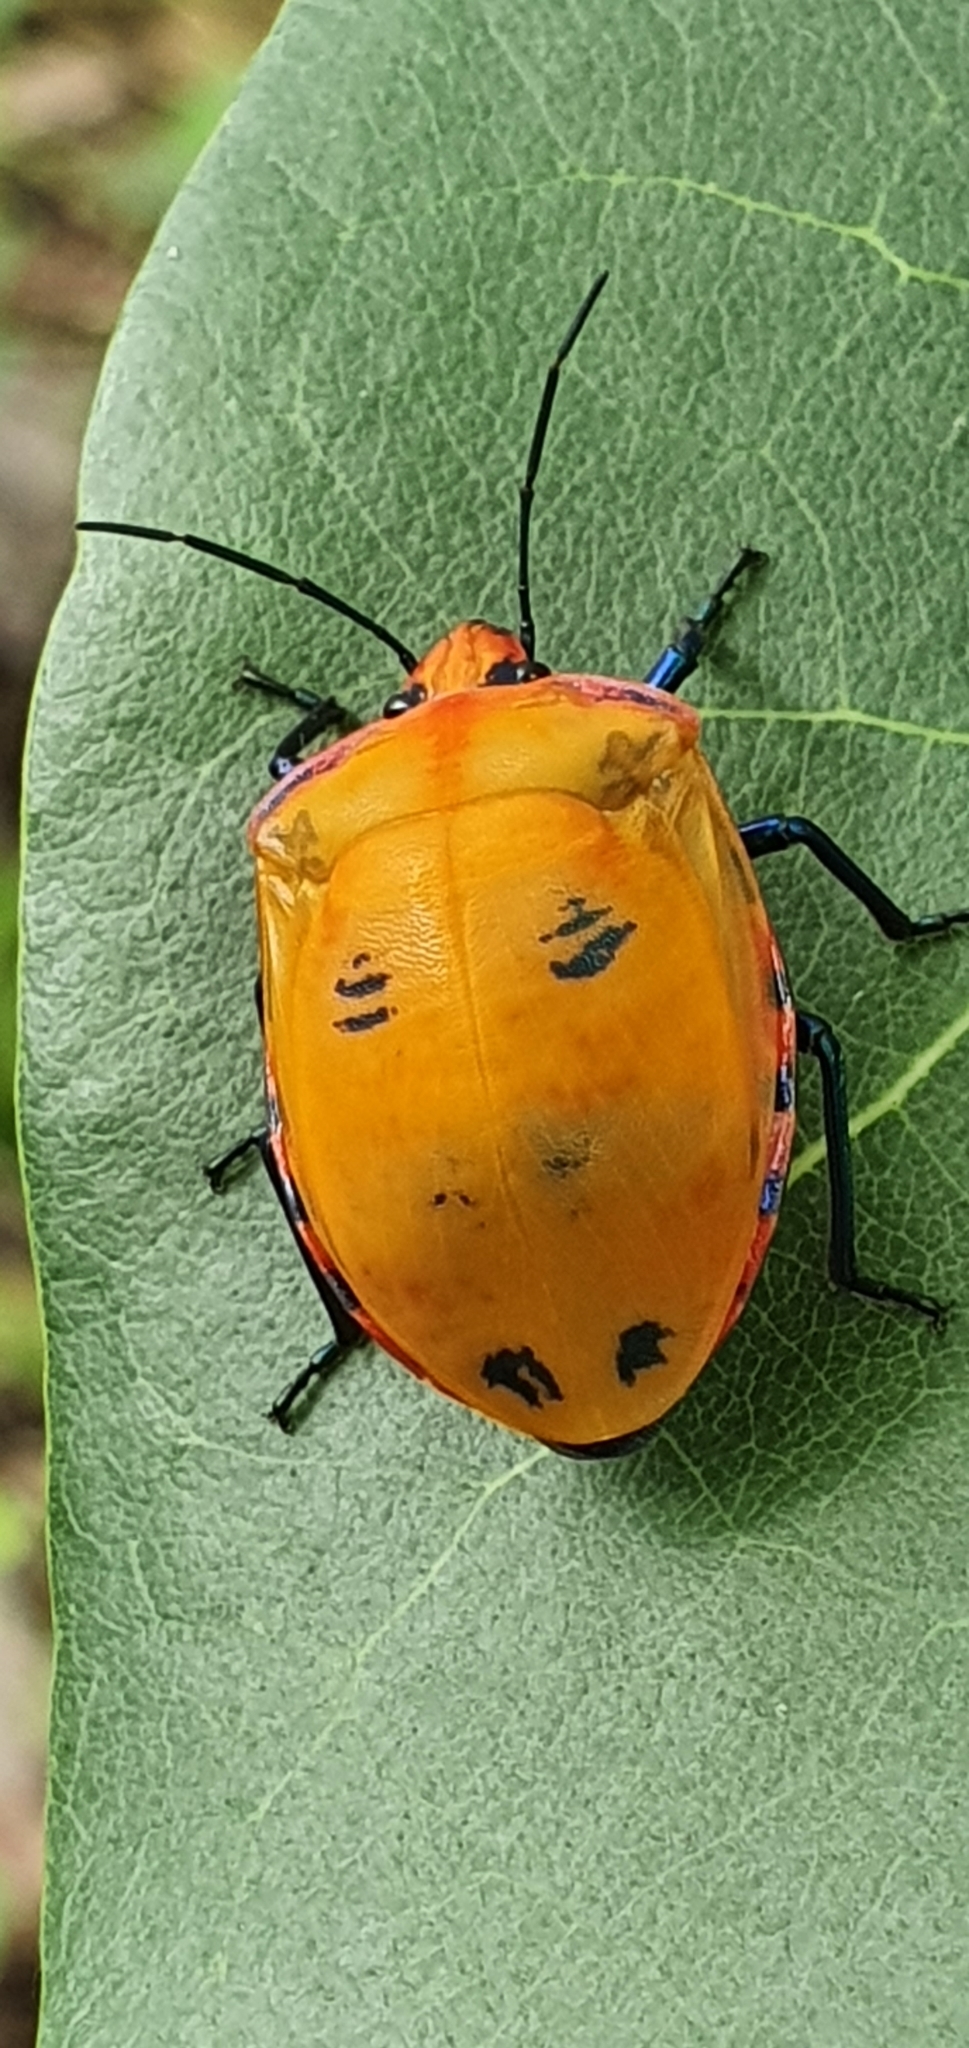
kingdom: Animalia
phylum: Arthropoda
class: Insecta
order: Hemiptera
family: Scutelleridae
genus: Tectocoris
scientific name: Tectocoris diophthalmus
